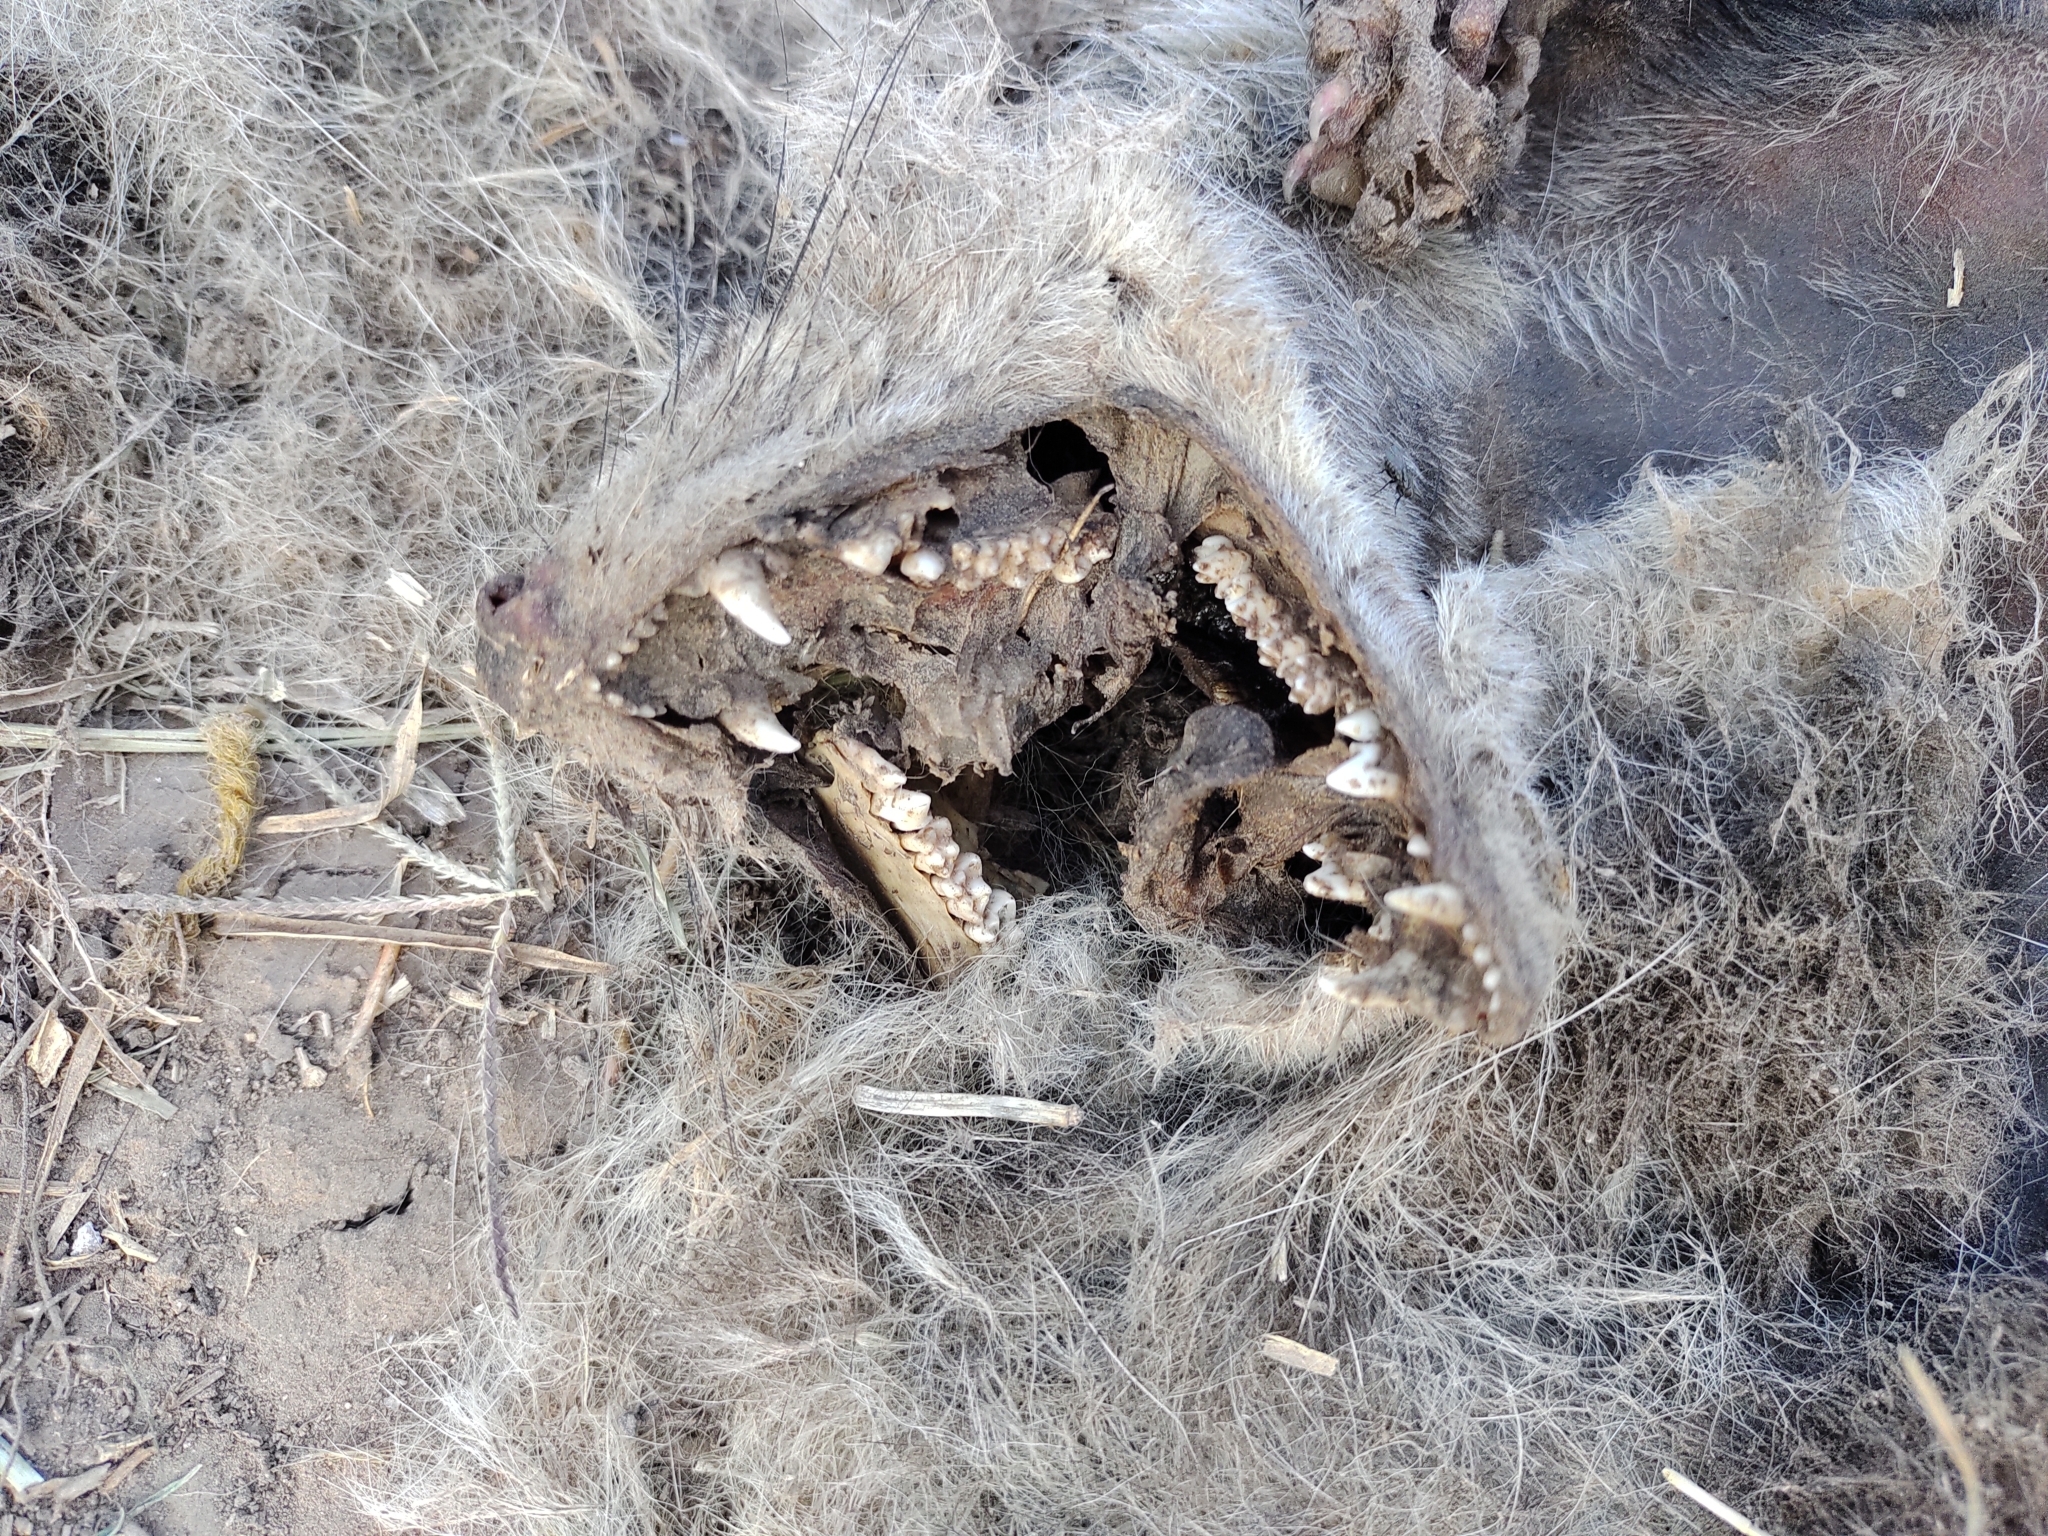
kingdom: Animalia
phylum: Chordata
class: Mammalia
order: Didelphimorphia
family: Didelphidae
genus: Didelphis
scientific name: Didelphis albiventris
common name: White-eared opossum
